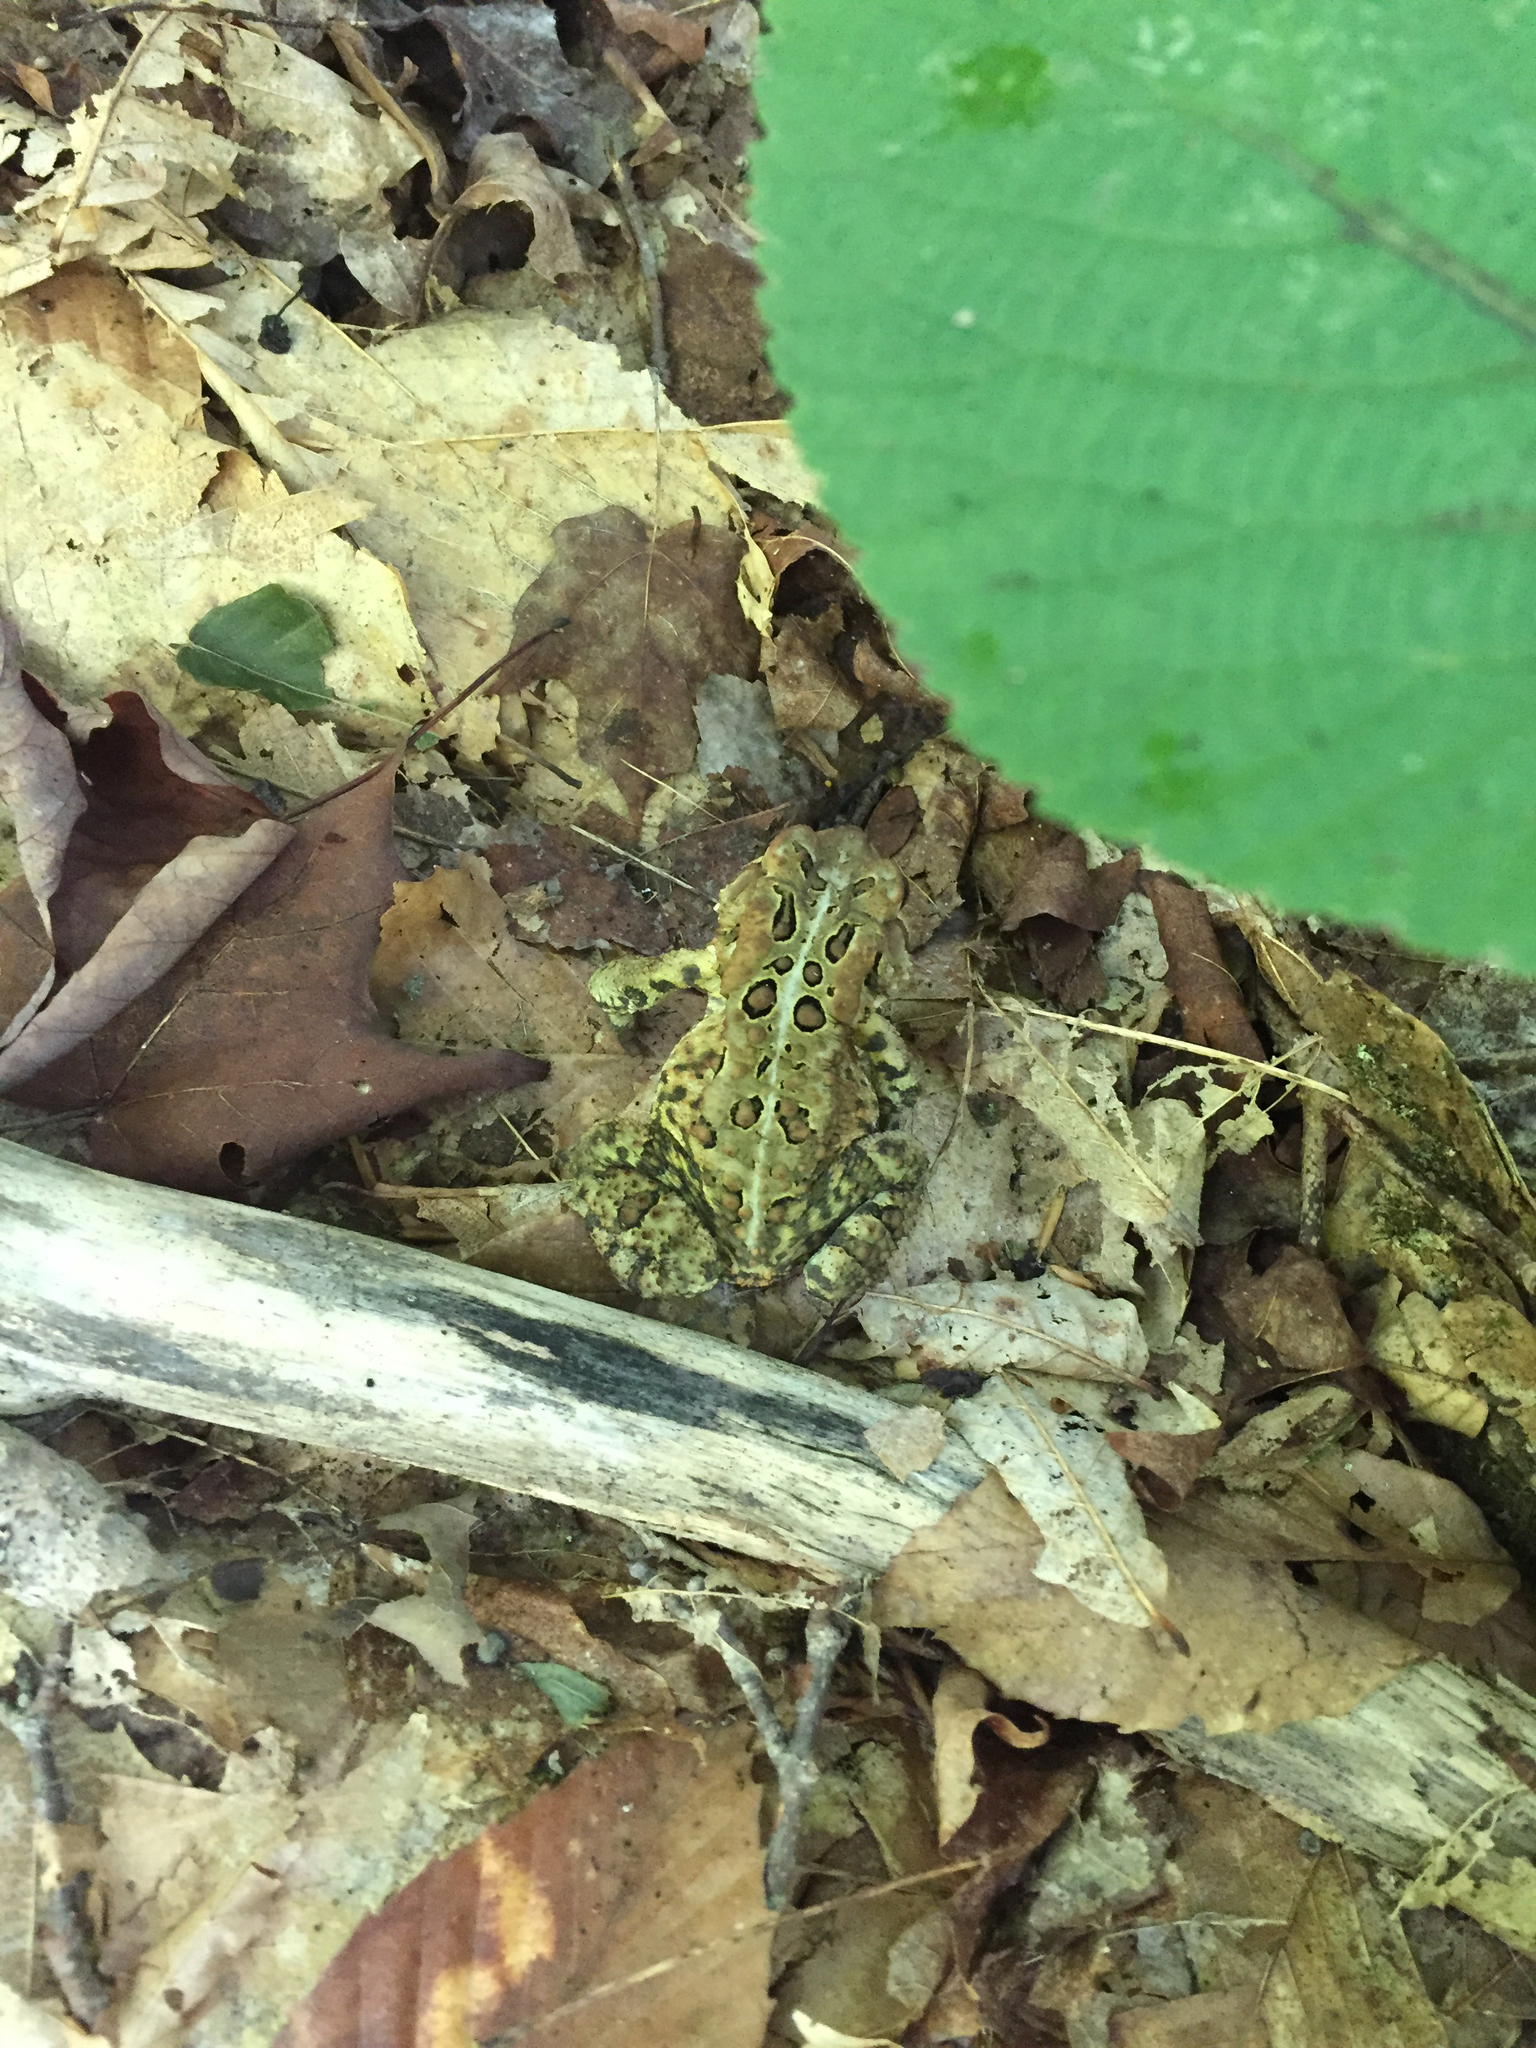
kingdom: Animalia
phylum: Chordata
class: Amphibia
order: Anura
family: Bufonidae
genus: Anaxyrus
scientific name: Anaxyrus americanus
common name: American toad
